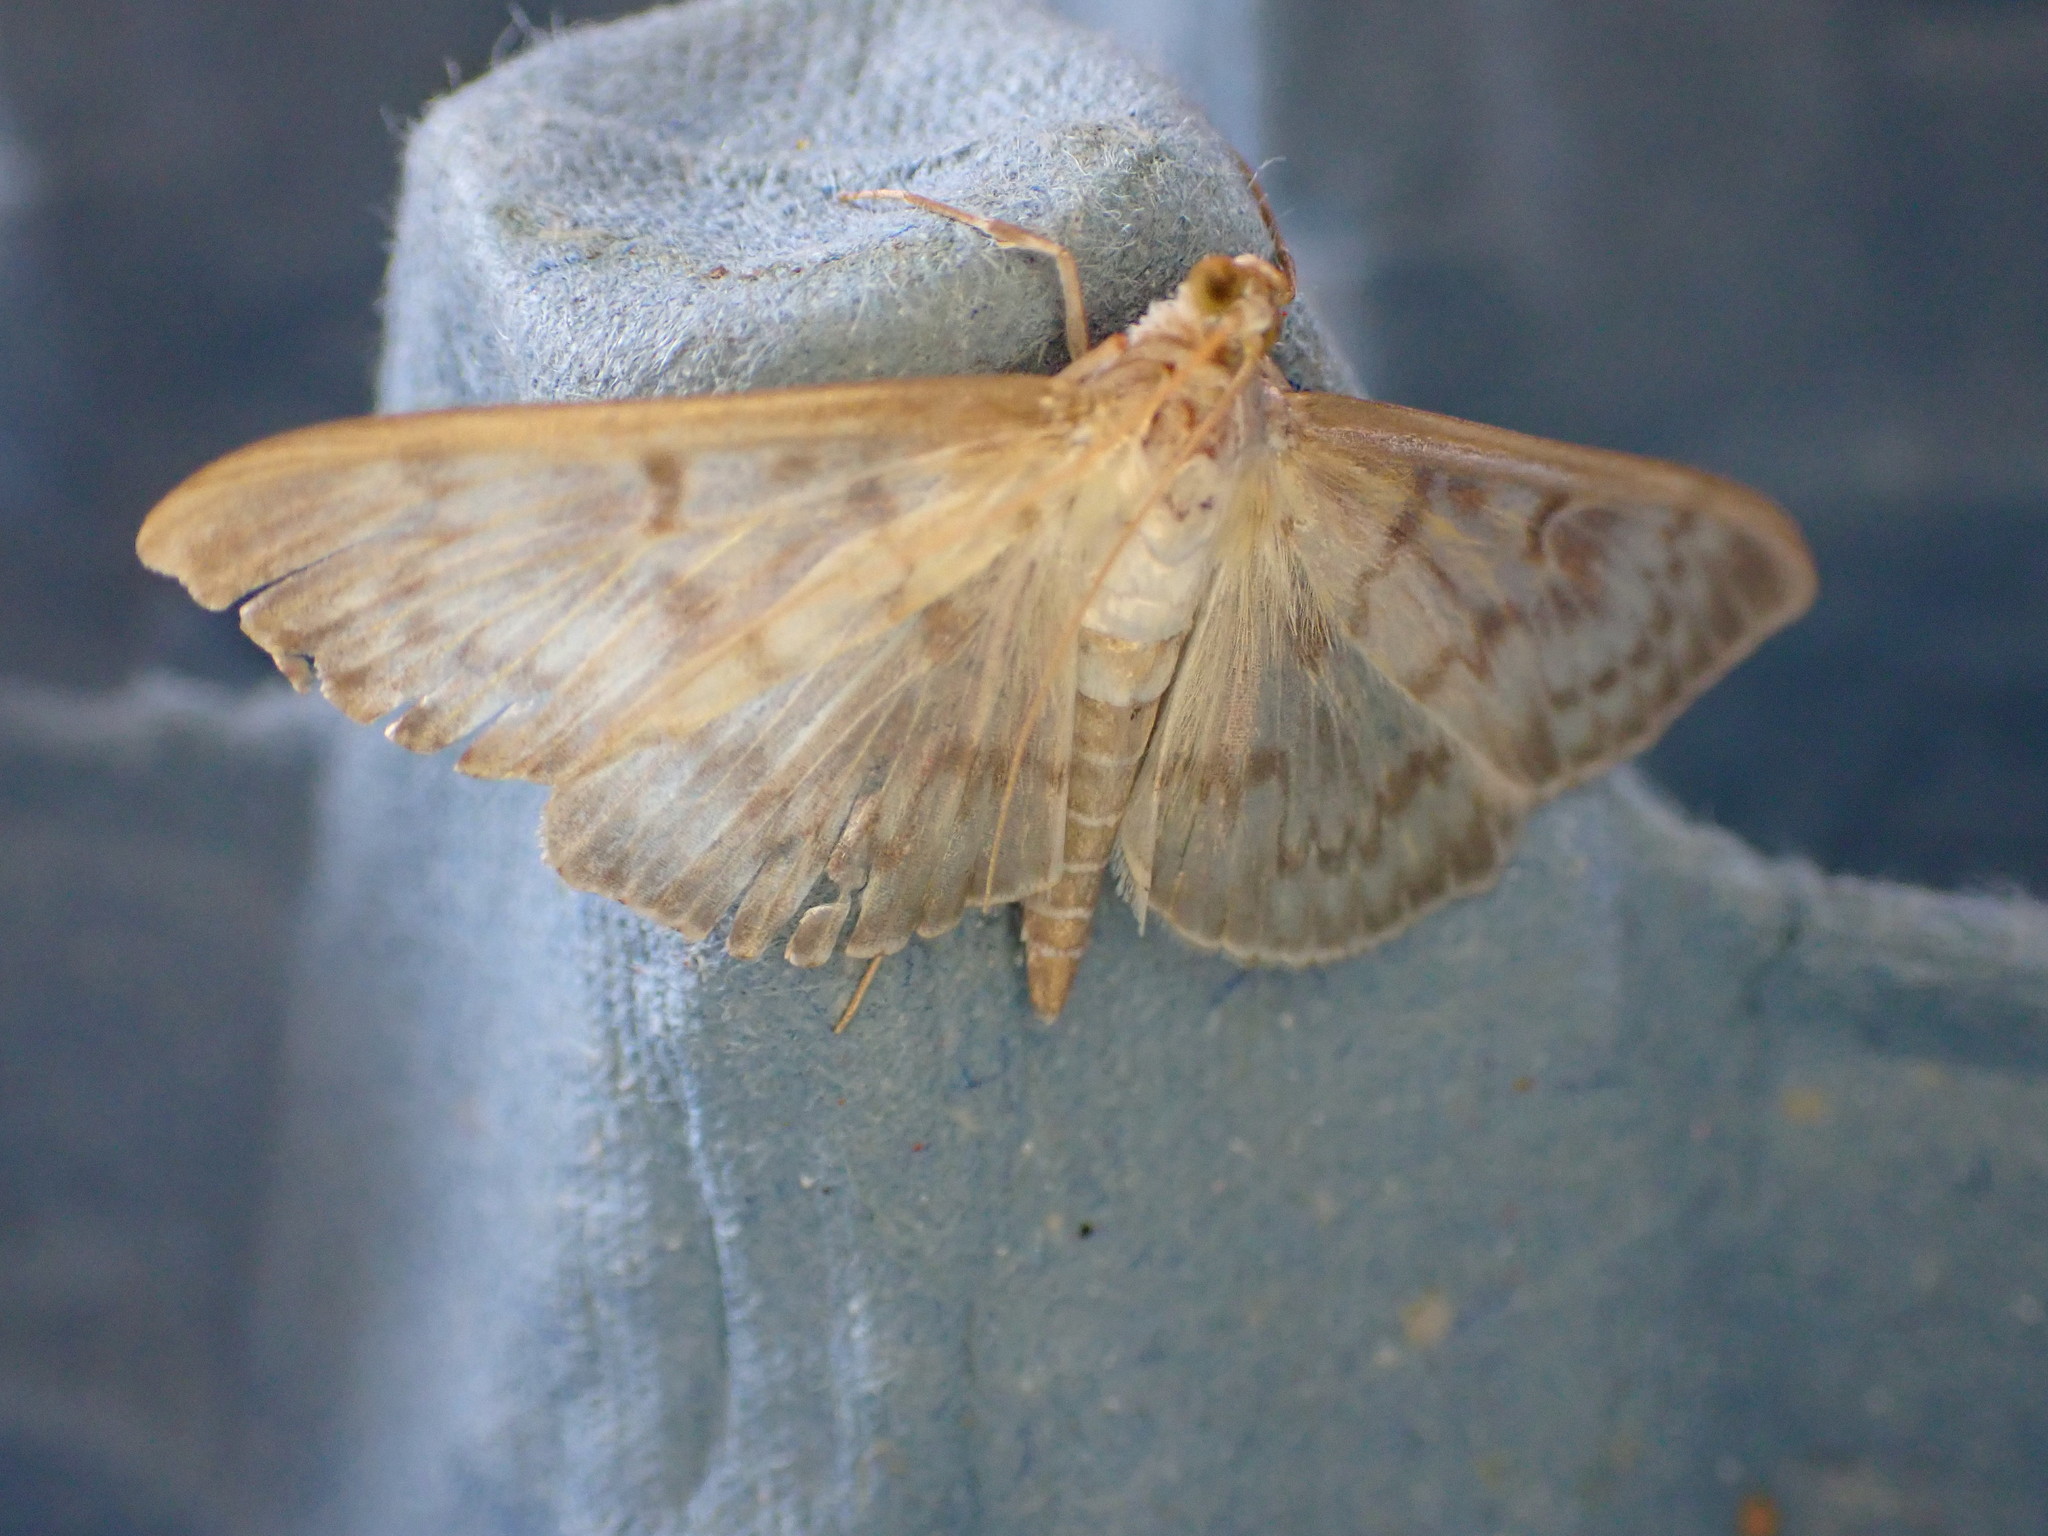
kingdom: Animalia
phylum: Arthropoda
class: Insecta
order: Lepidoptera
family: Crambidae
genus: Patania
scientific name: Patania ruralis
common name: Mother of pearl
